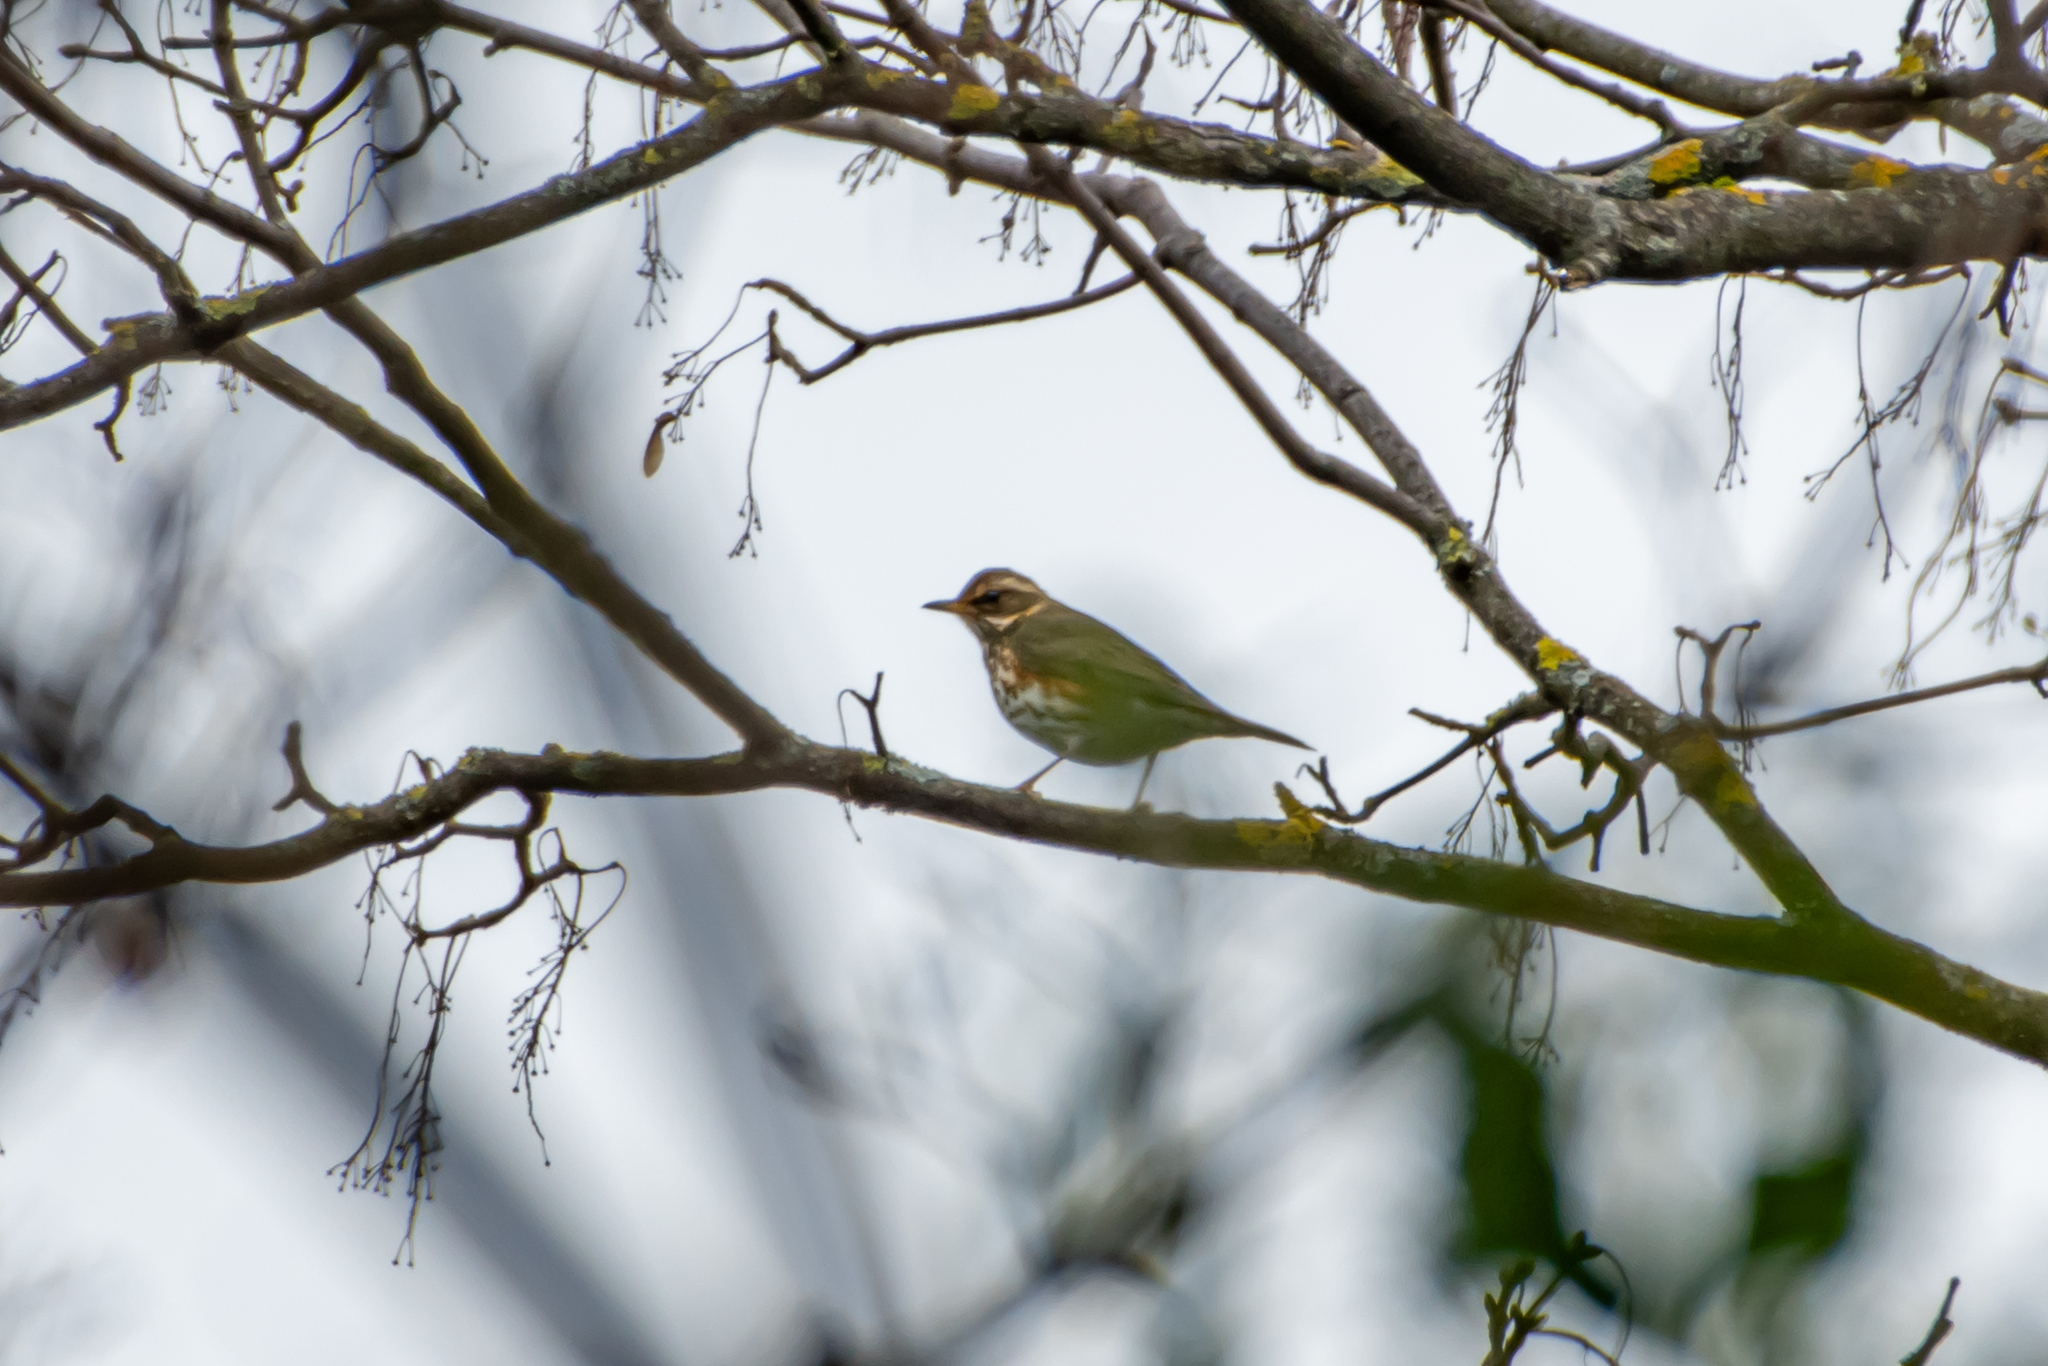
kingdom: Animalia
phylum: Chordata
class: Aves
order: Passeriformes
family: Turdidae
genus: Turdus
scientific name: Turdus iliacus
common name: Redwing
